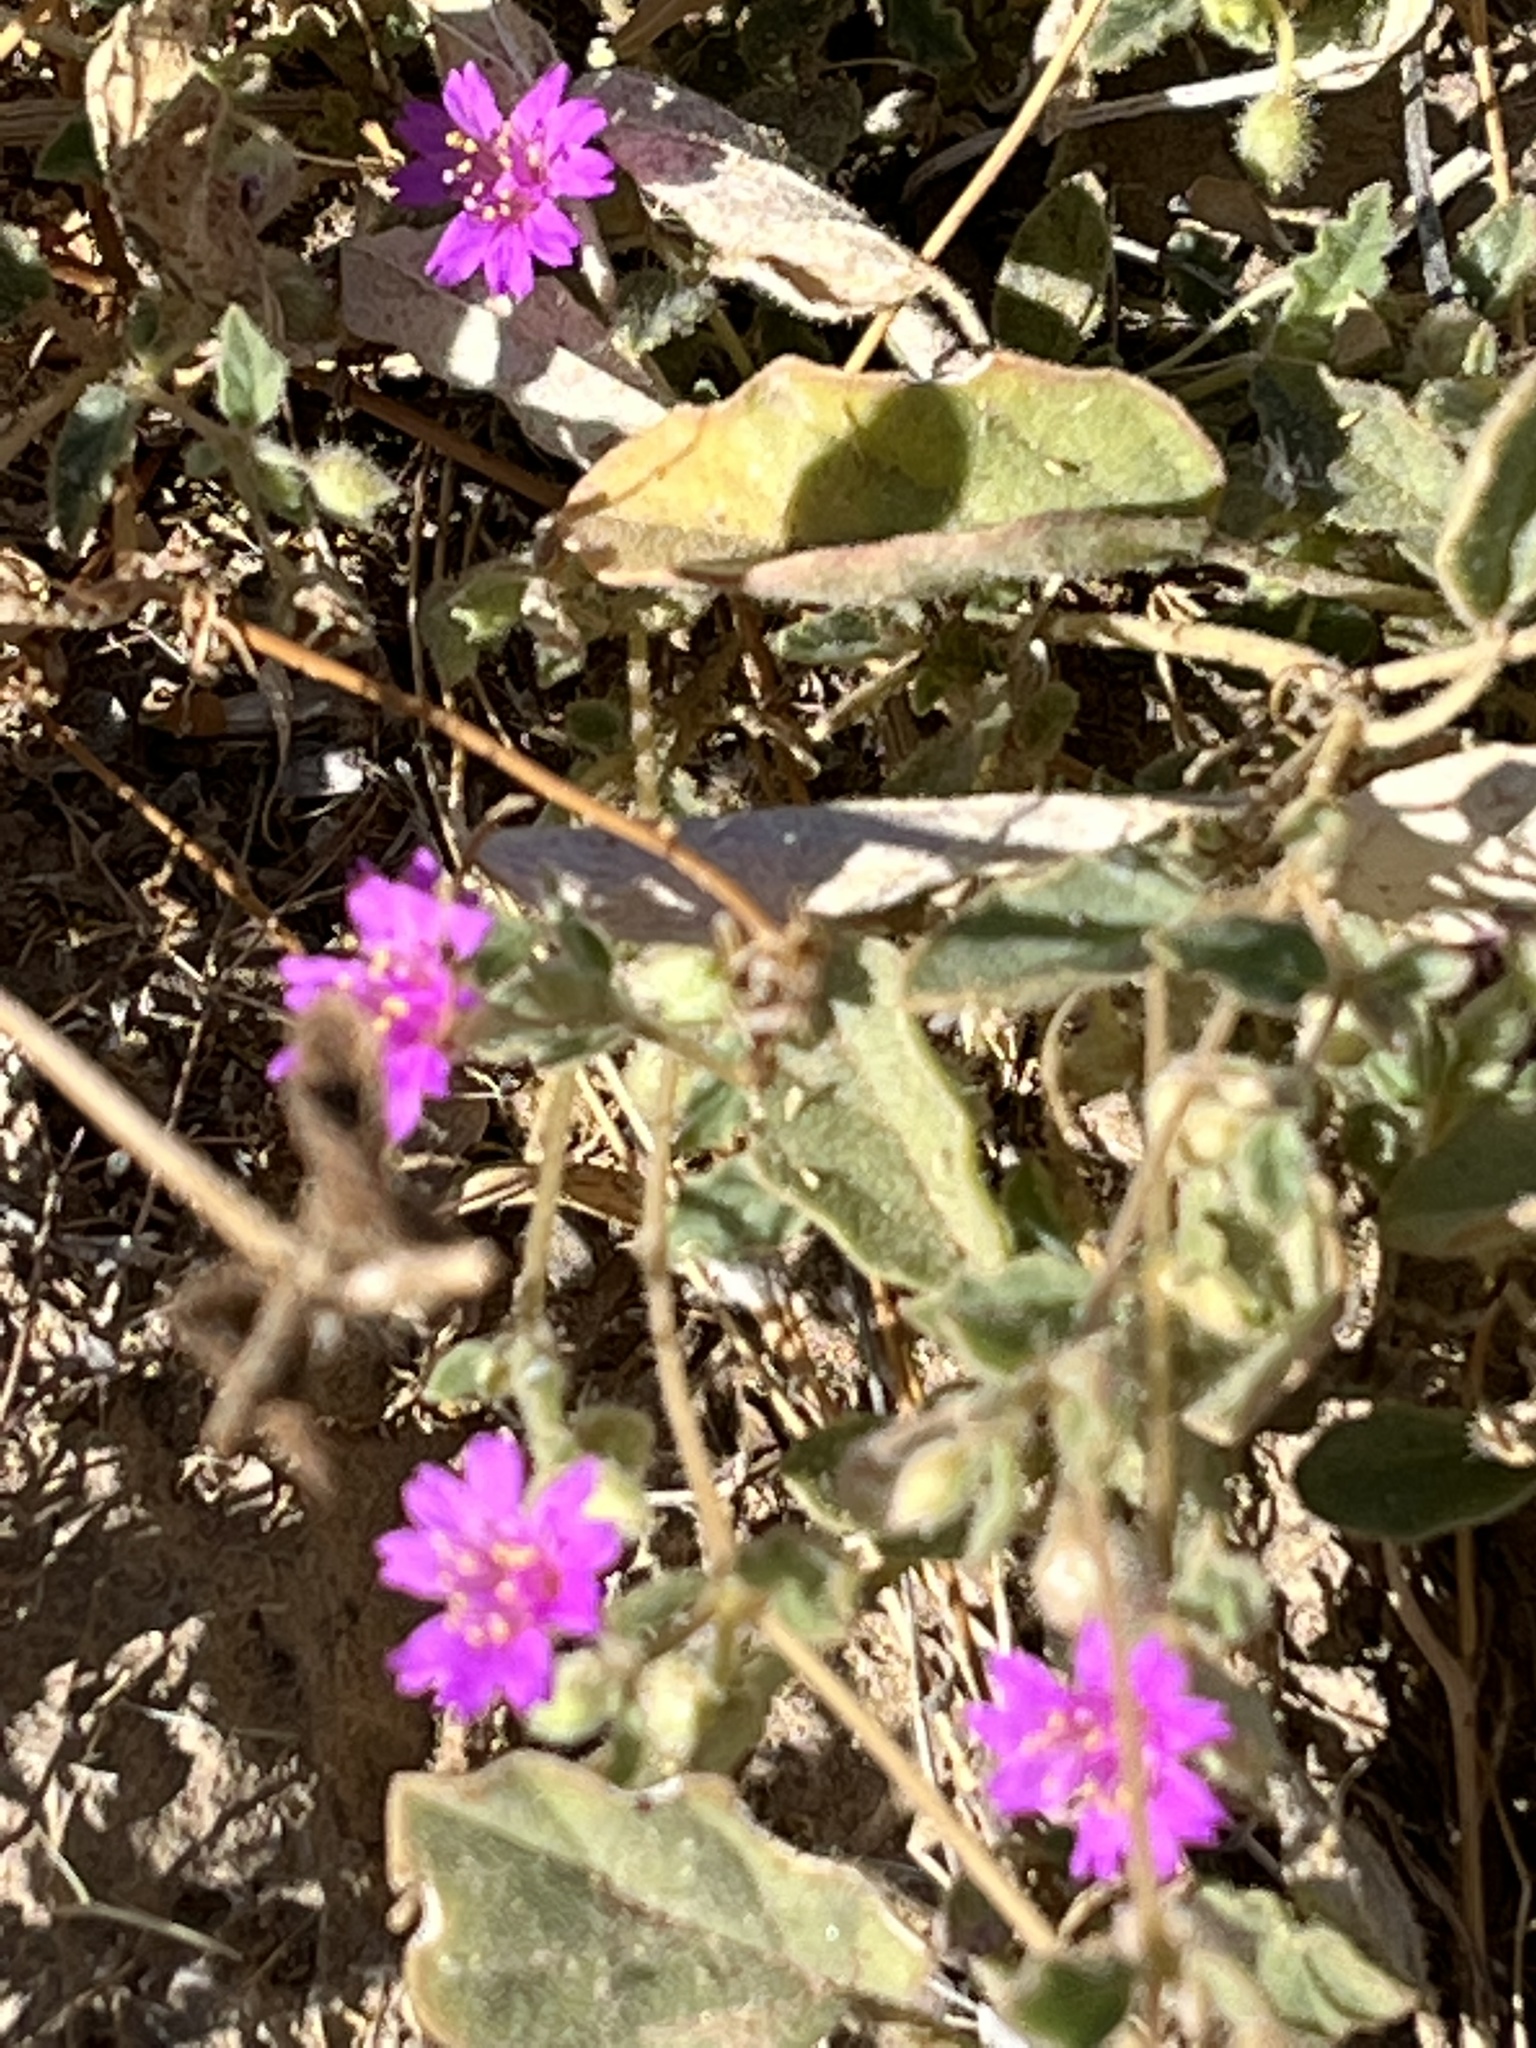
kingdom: Plantae
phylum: Tracheophyta
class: Magnoliopsida
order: Caryophyllales
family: Nyctaginaceae
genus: Allionia
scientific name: Allionia incarnata
